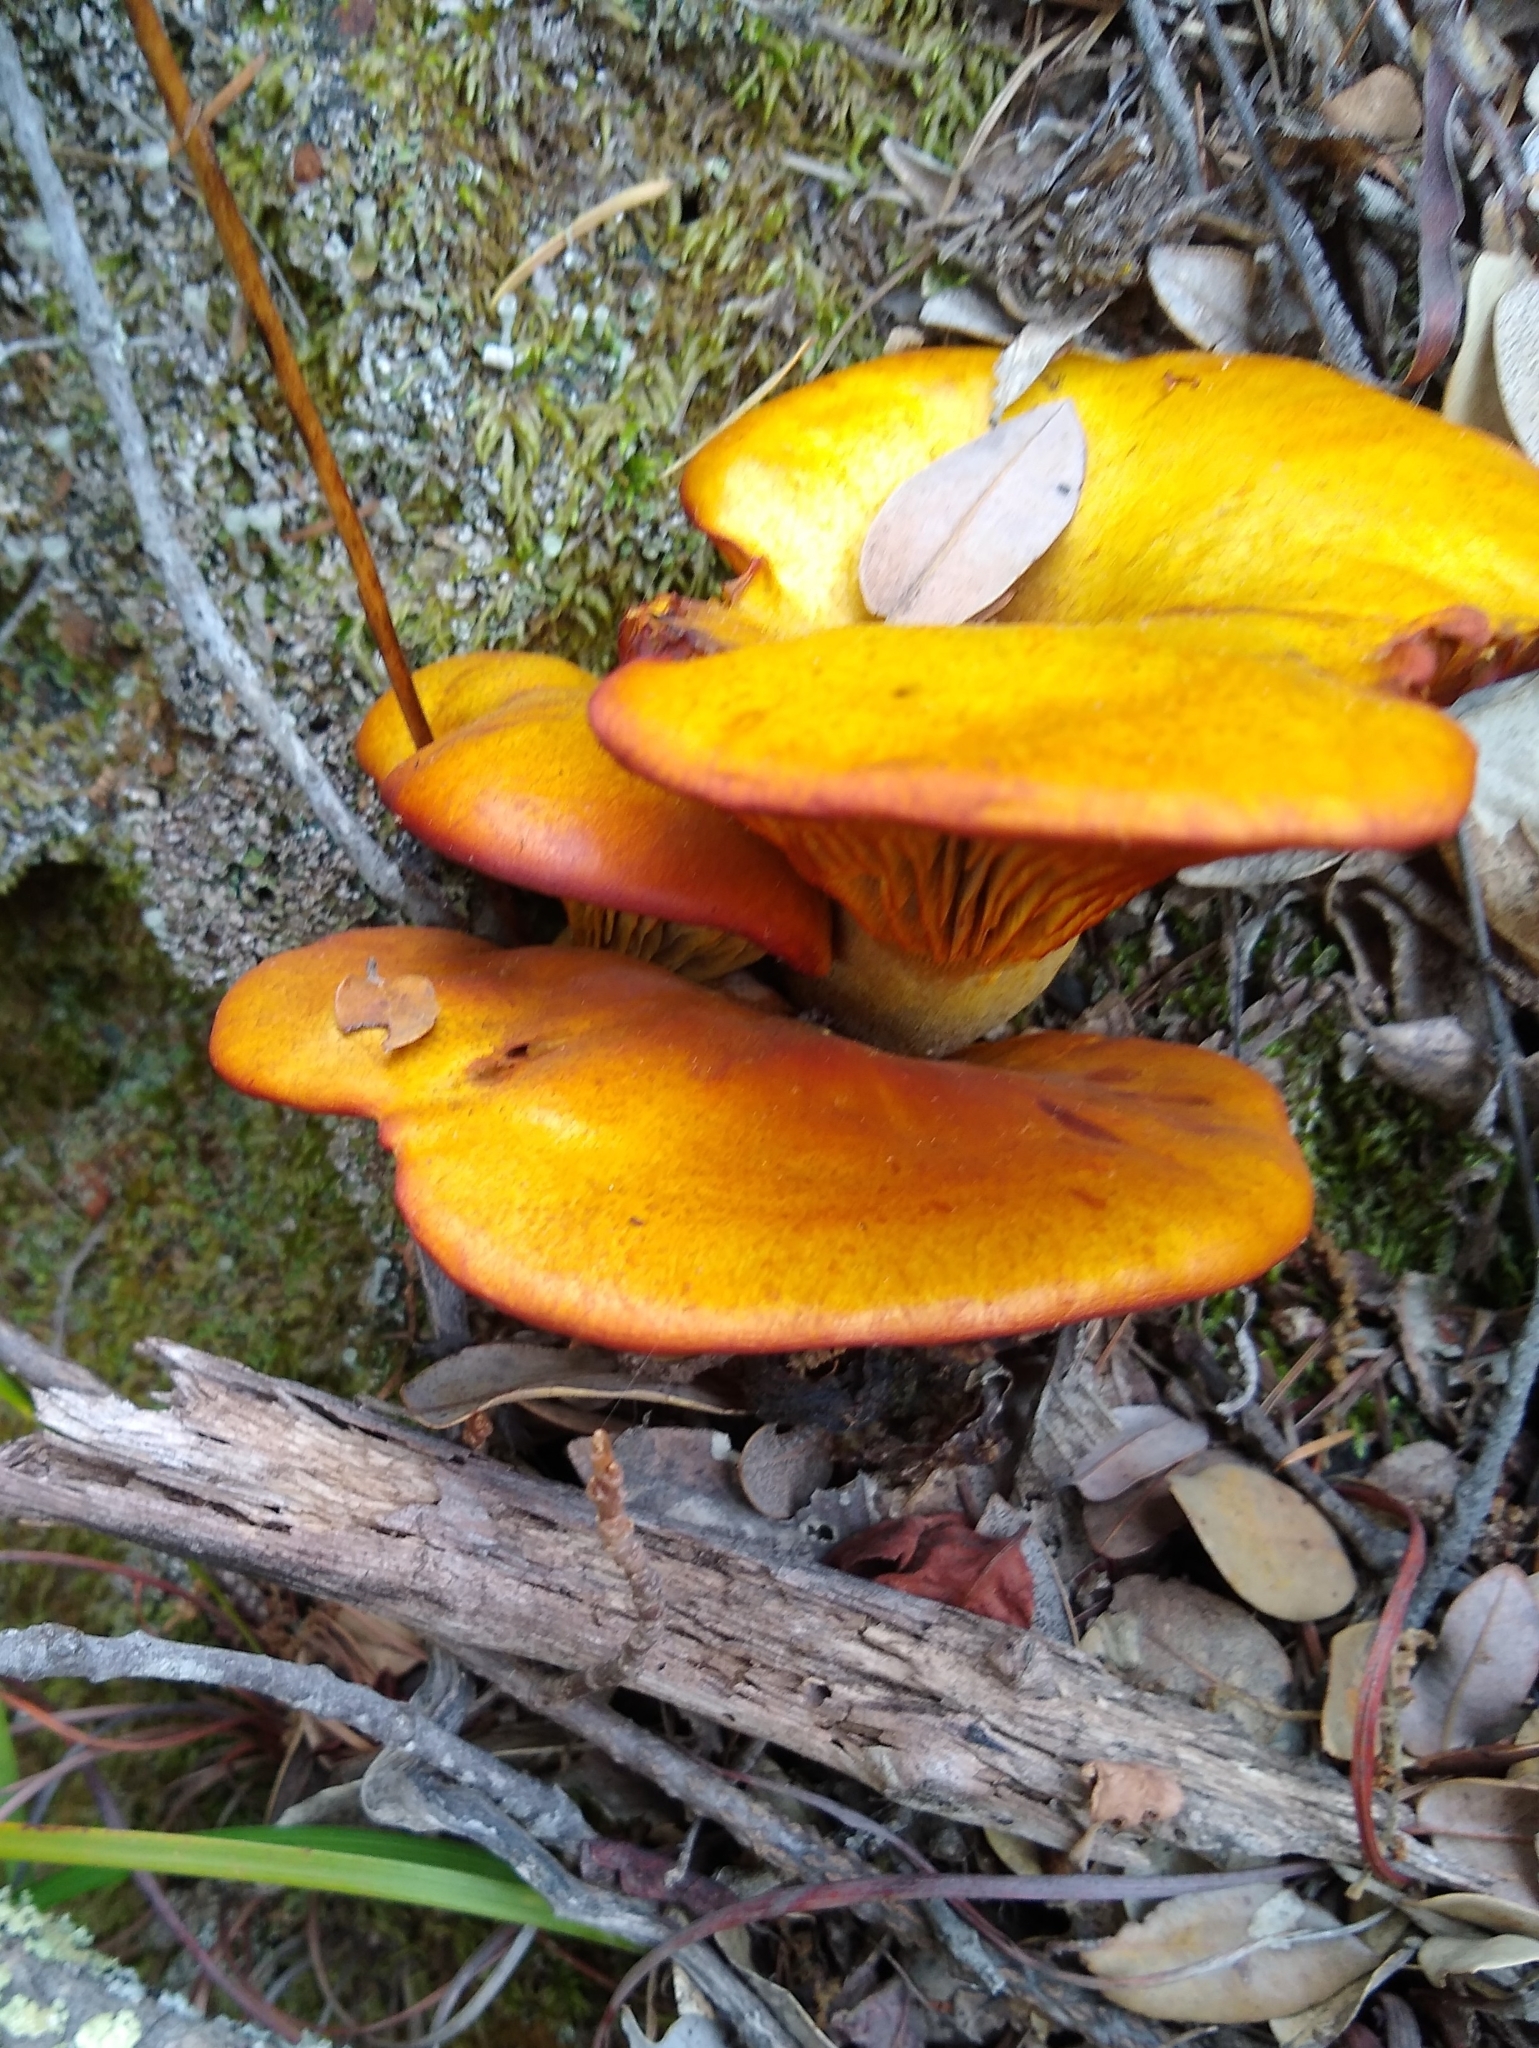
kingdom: Fungi
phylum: Basidiomycota
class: Agaricomycetes
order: Agaricales
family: Omphalotaceae
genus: Omphalotus
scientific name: Omphalotus olivascens
